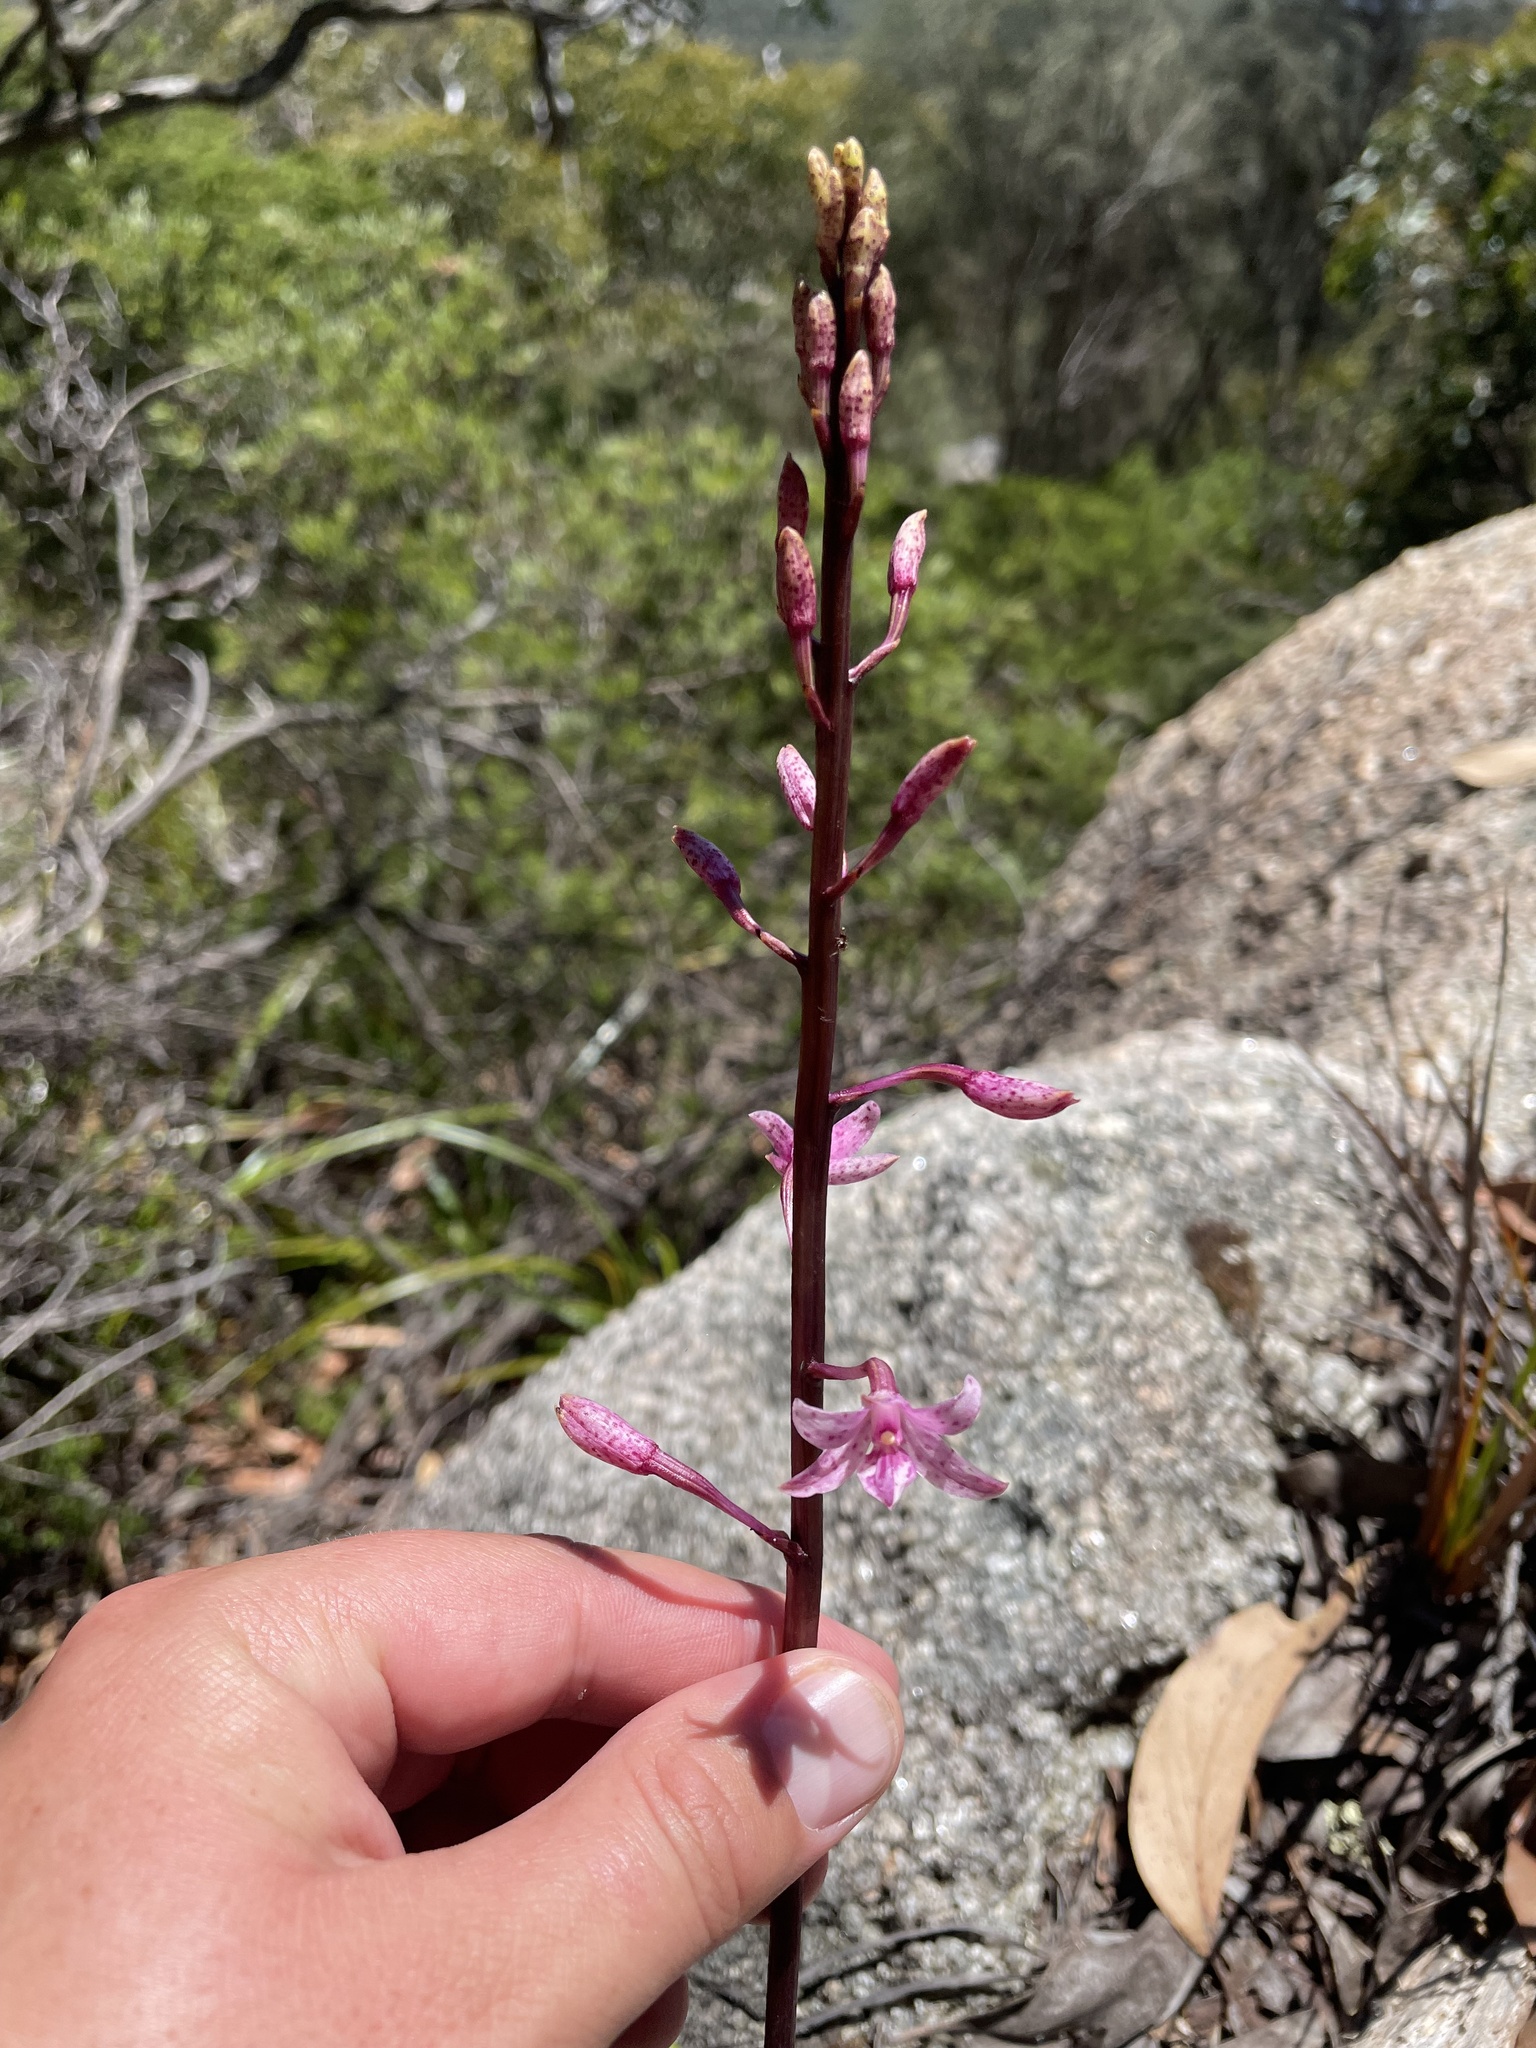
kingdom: Plantae
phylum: Tracheophyta
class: Liliopsida
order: Asparagales
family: Orchidaceae
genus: Dipodium
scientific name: Dipodium roseum
